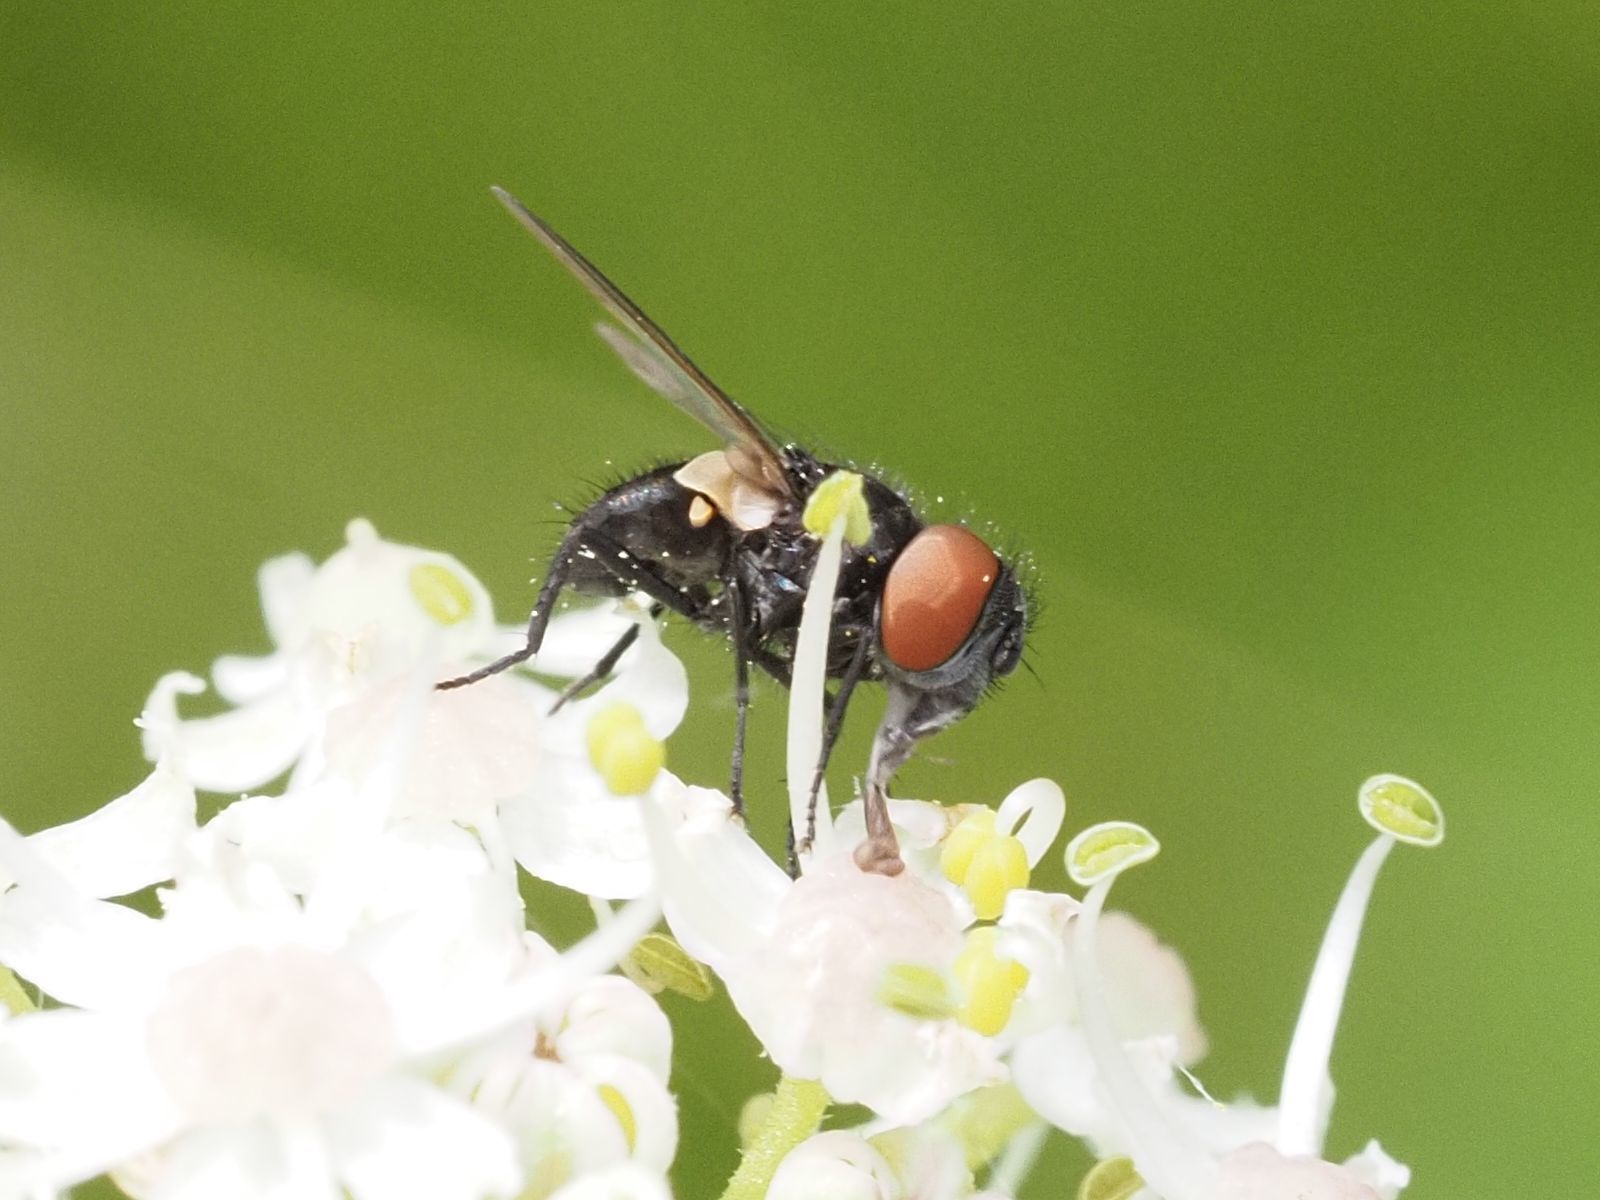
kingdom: Animalia
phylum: Arthropoda
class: Insecta
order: Diptera
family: Tachinidae
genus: Phasia
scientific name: Phasia barbifrons
